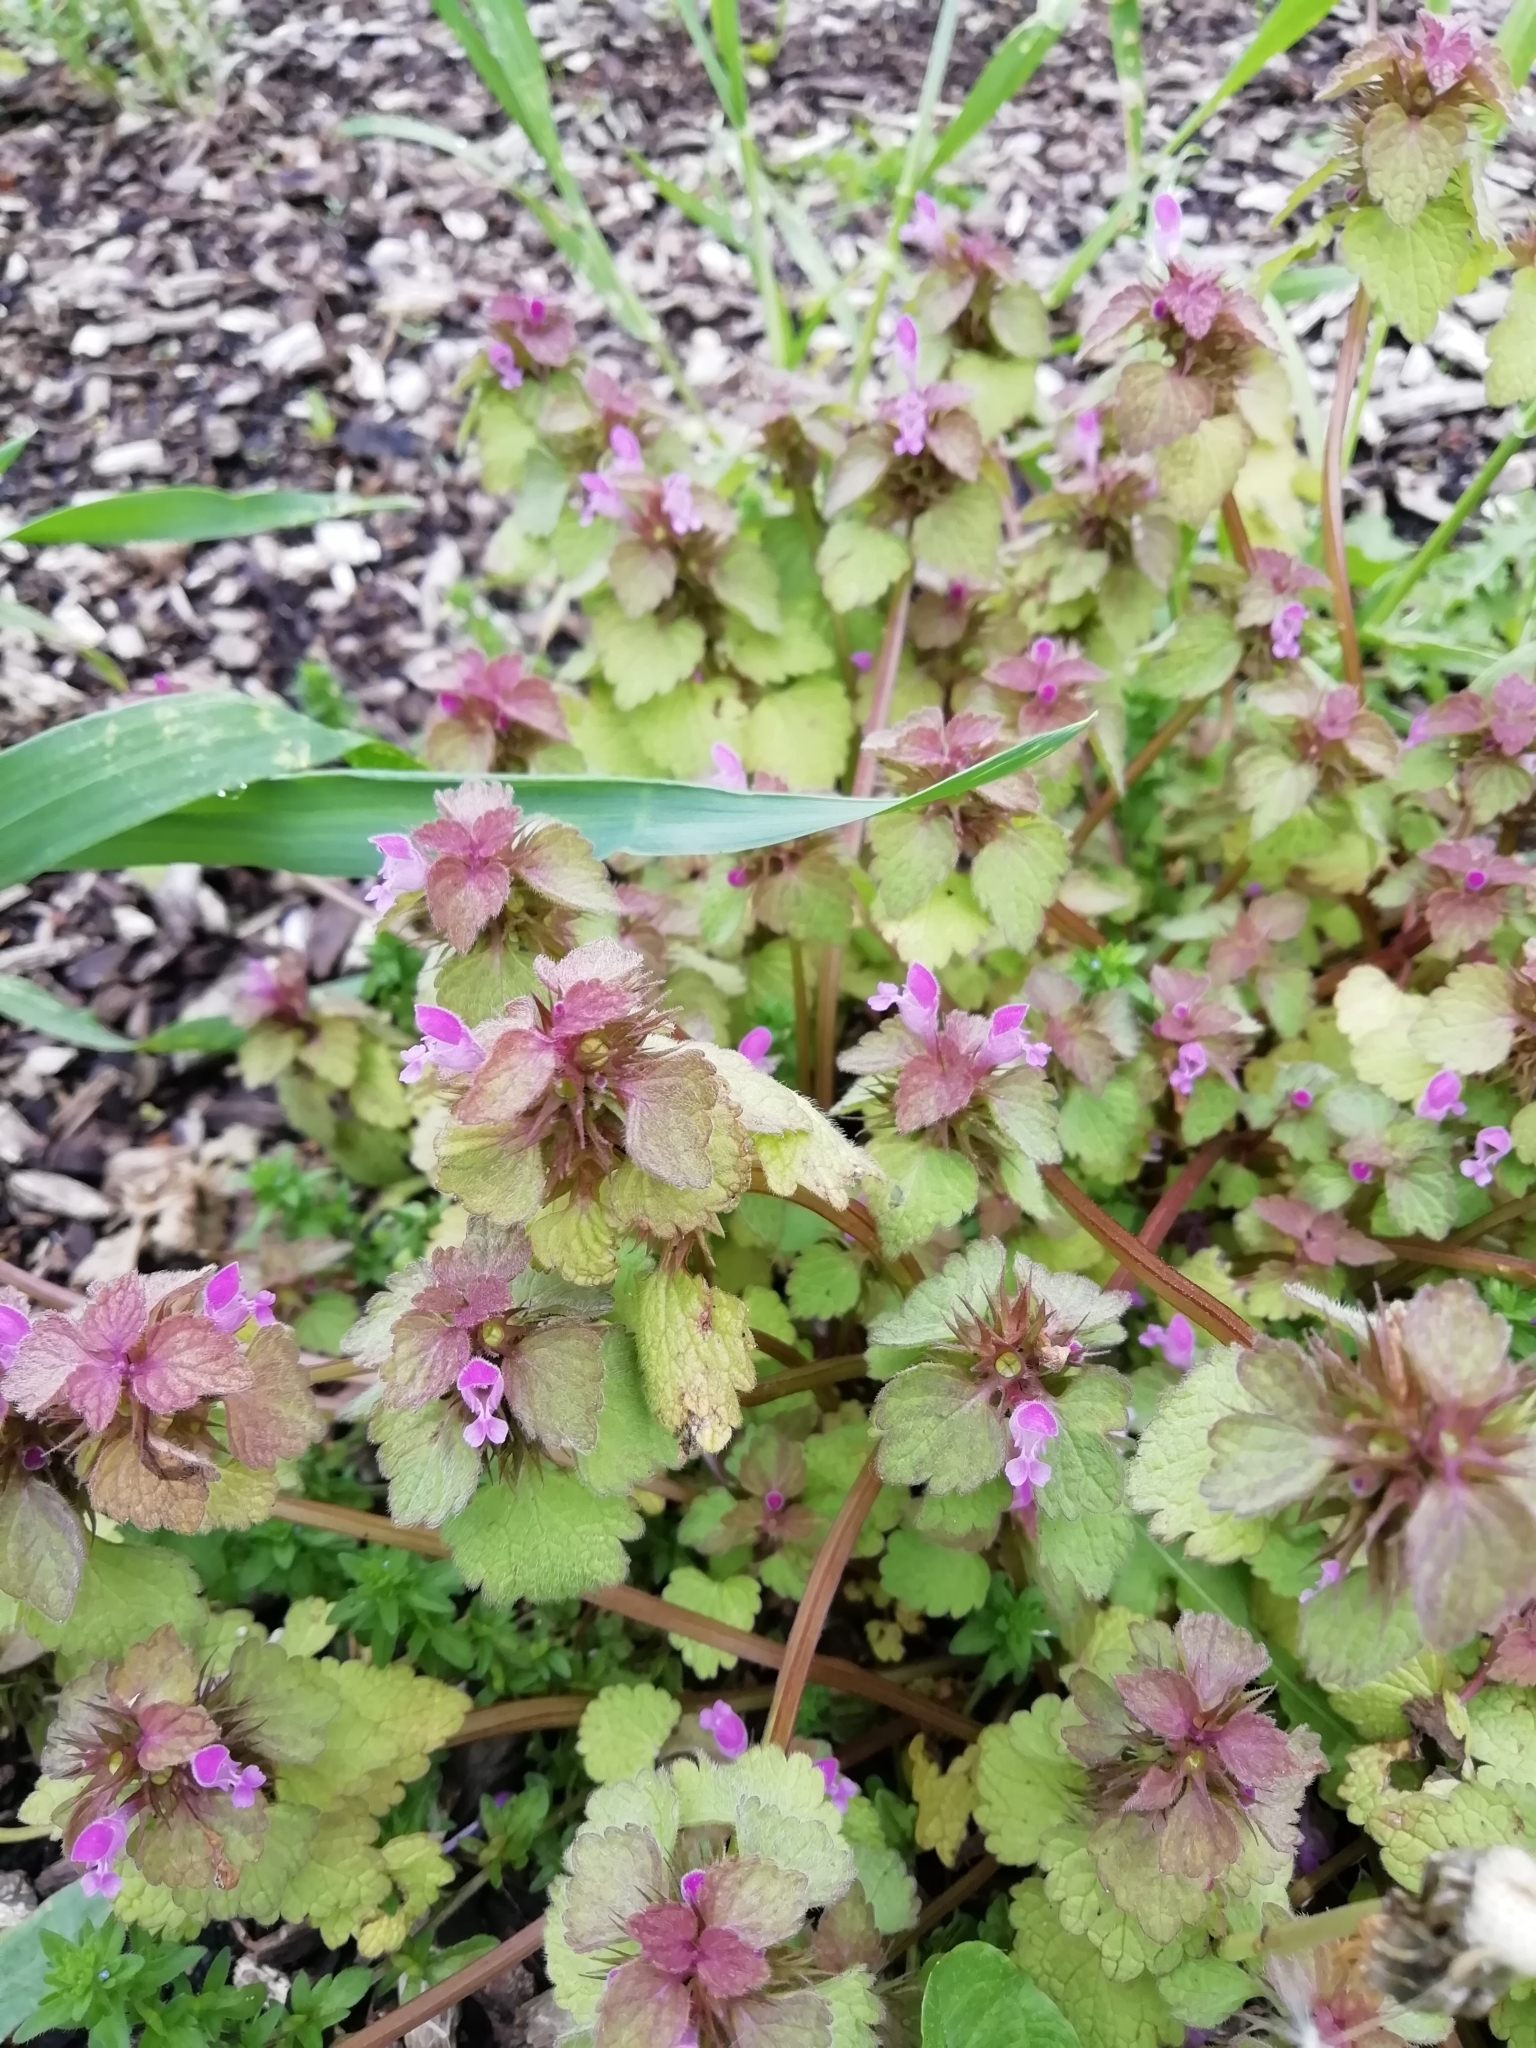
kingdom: Plantae
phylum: Tracheophyta
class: Magnoliopsida
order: Lamiales
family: Lamiaceae
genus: Lamium
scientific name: Lamium purpureum
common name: Red dead-nettle
